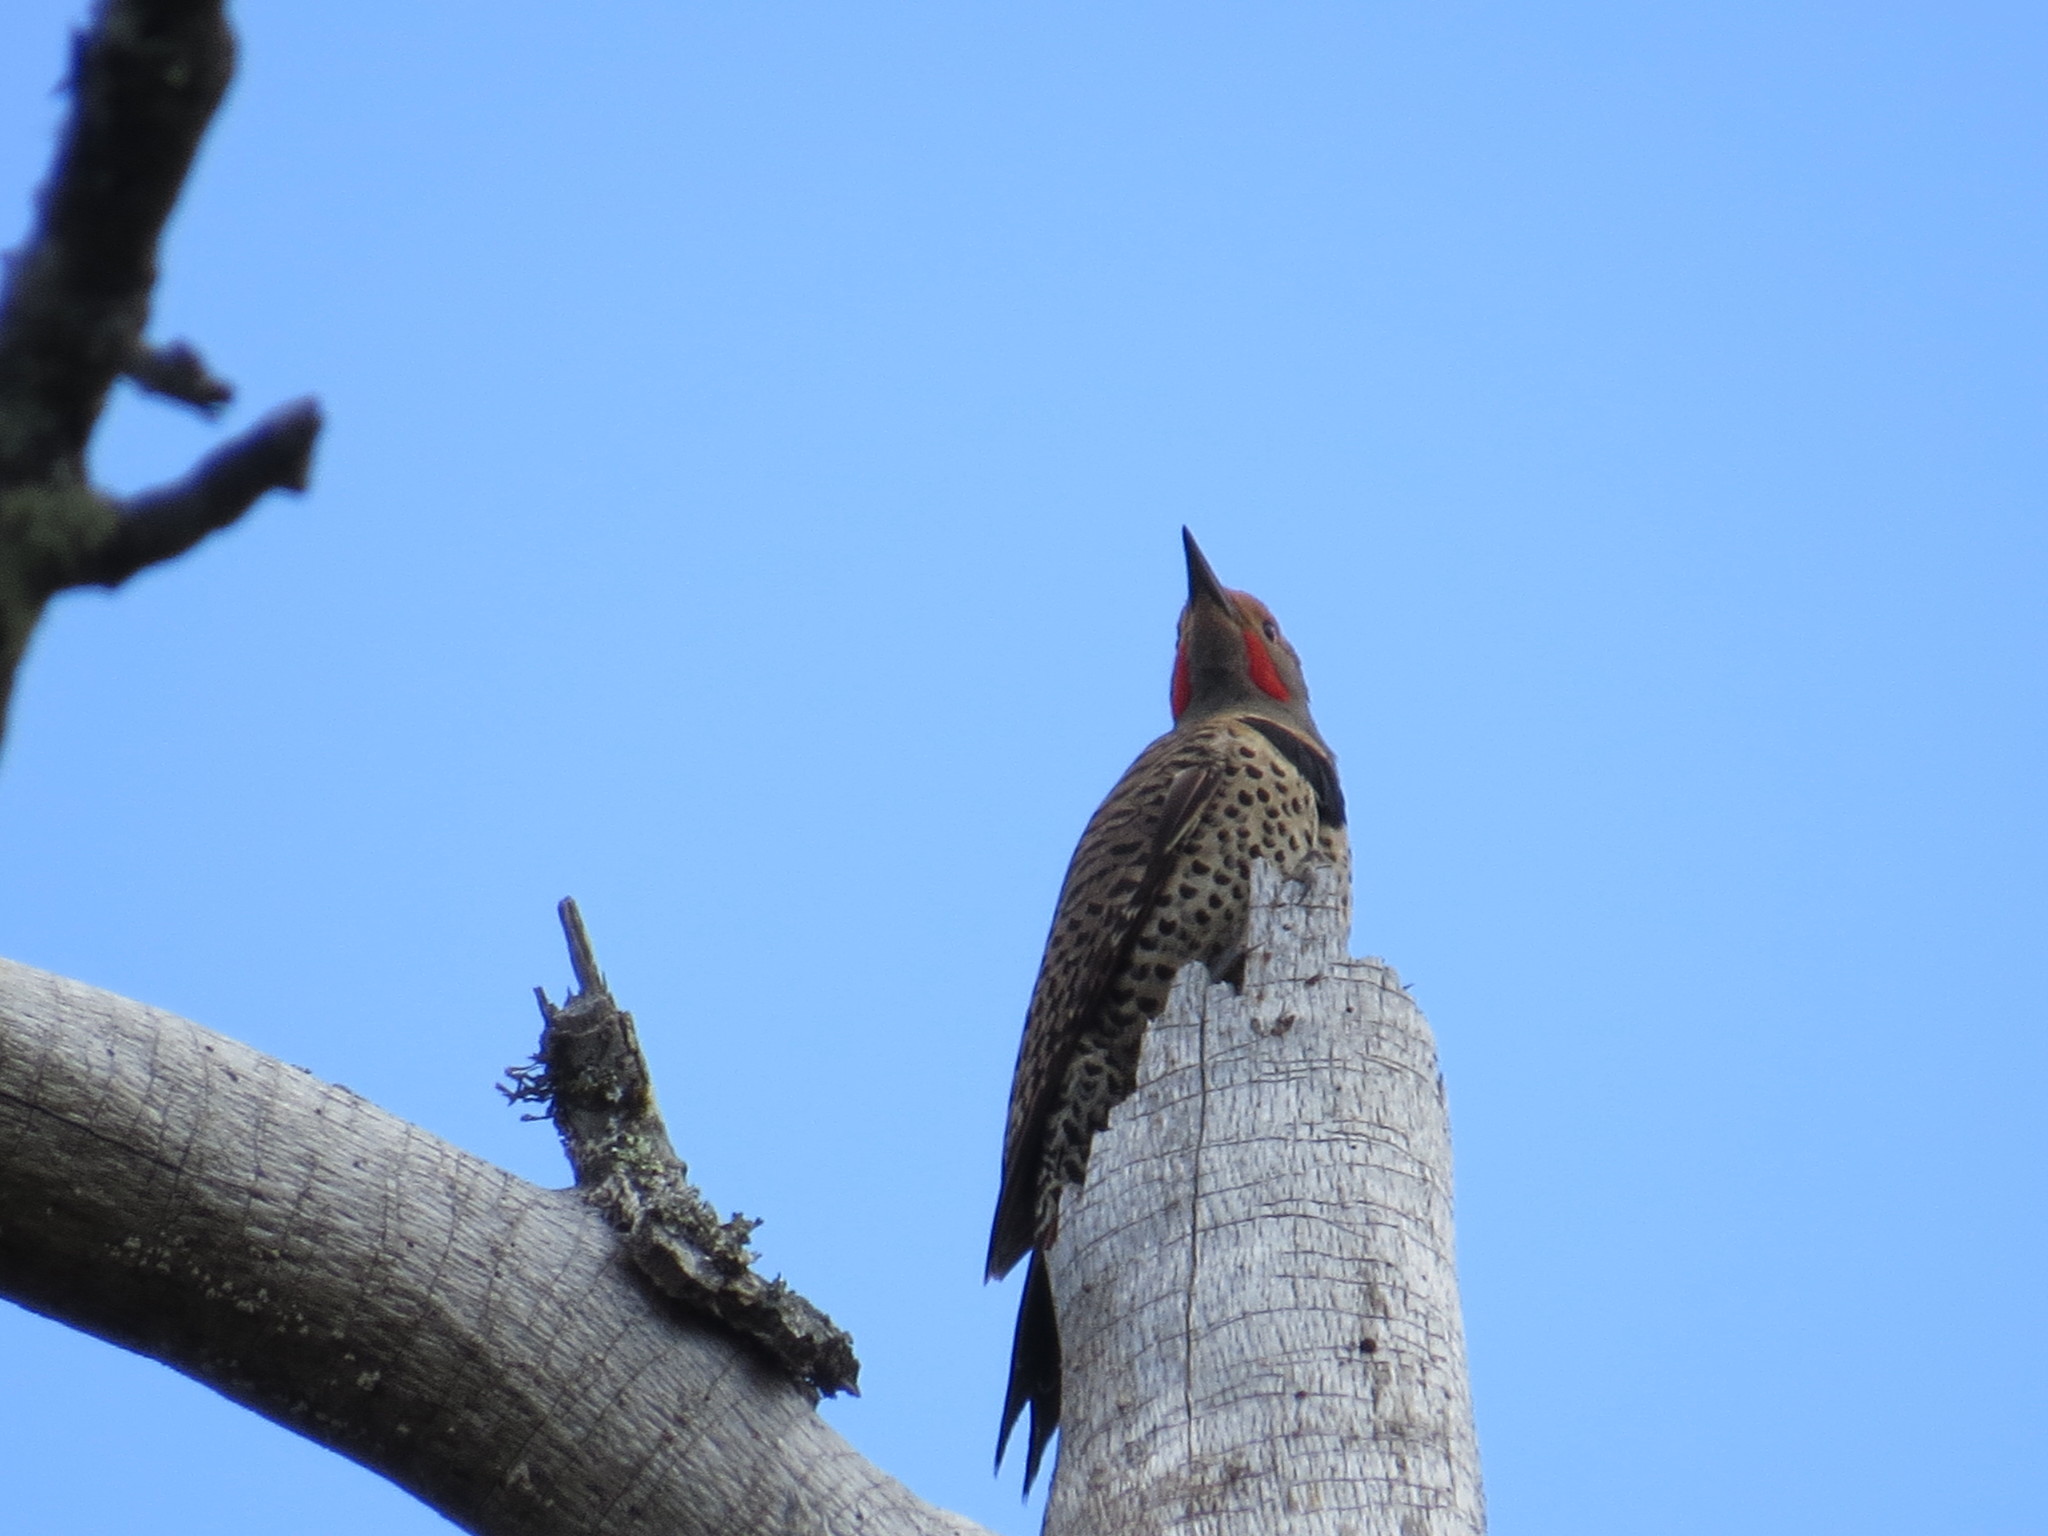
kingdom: Animalia
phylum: Chordata
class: Aves
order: Piciformes
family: Picidae
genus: Colaptes
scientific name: Colaptes auratus
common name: Northern flicker
